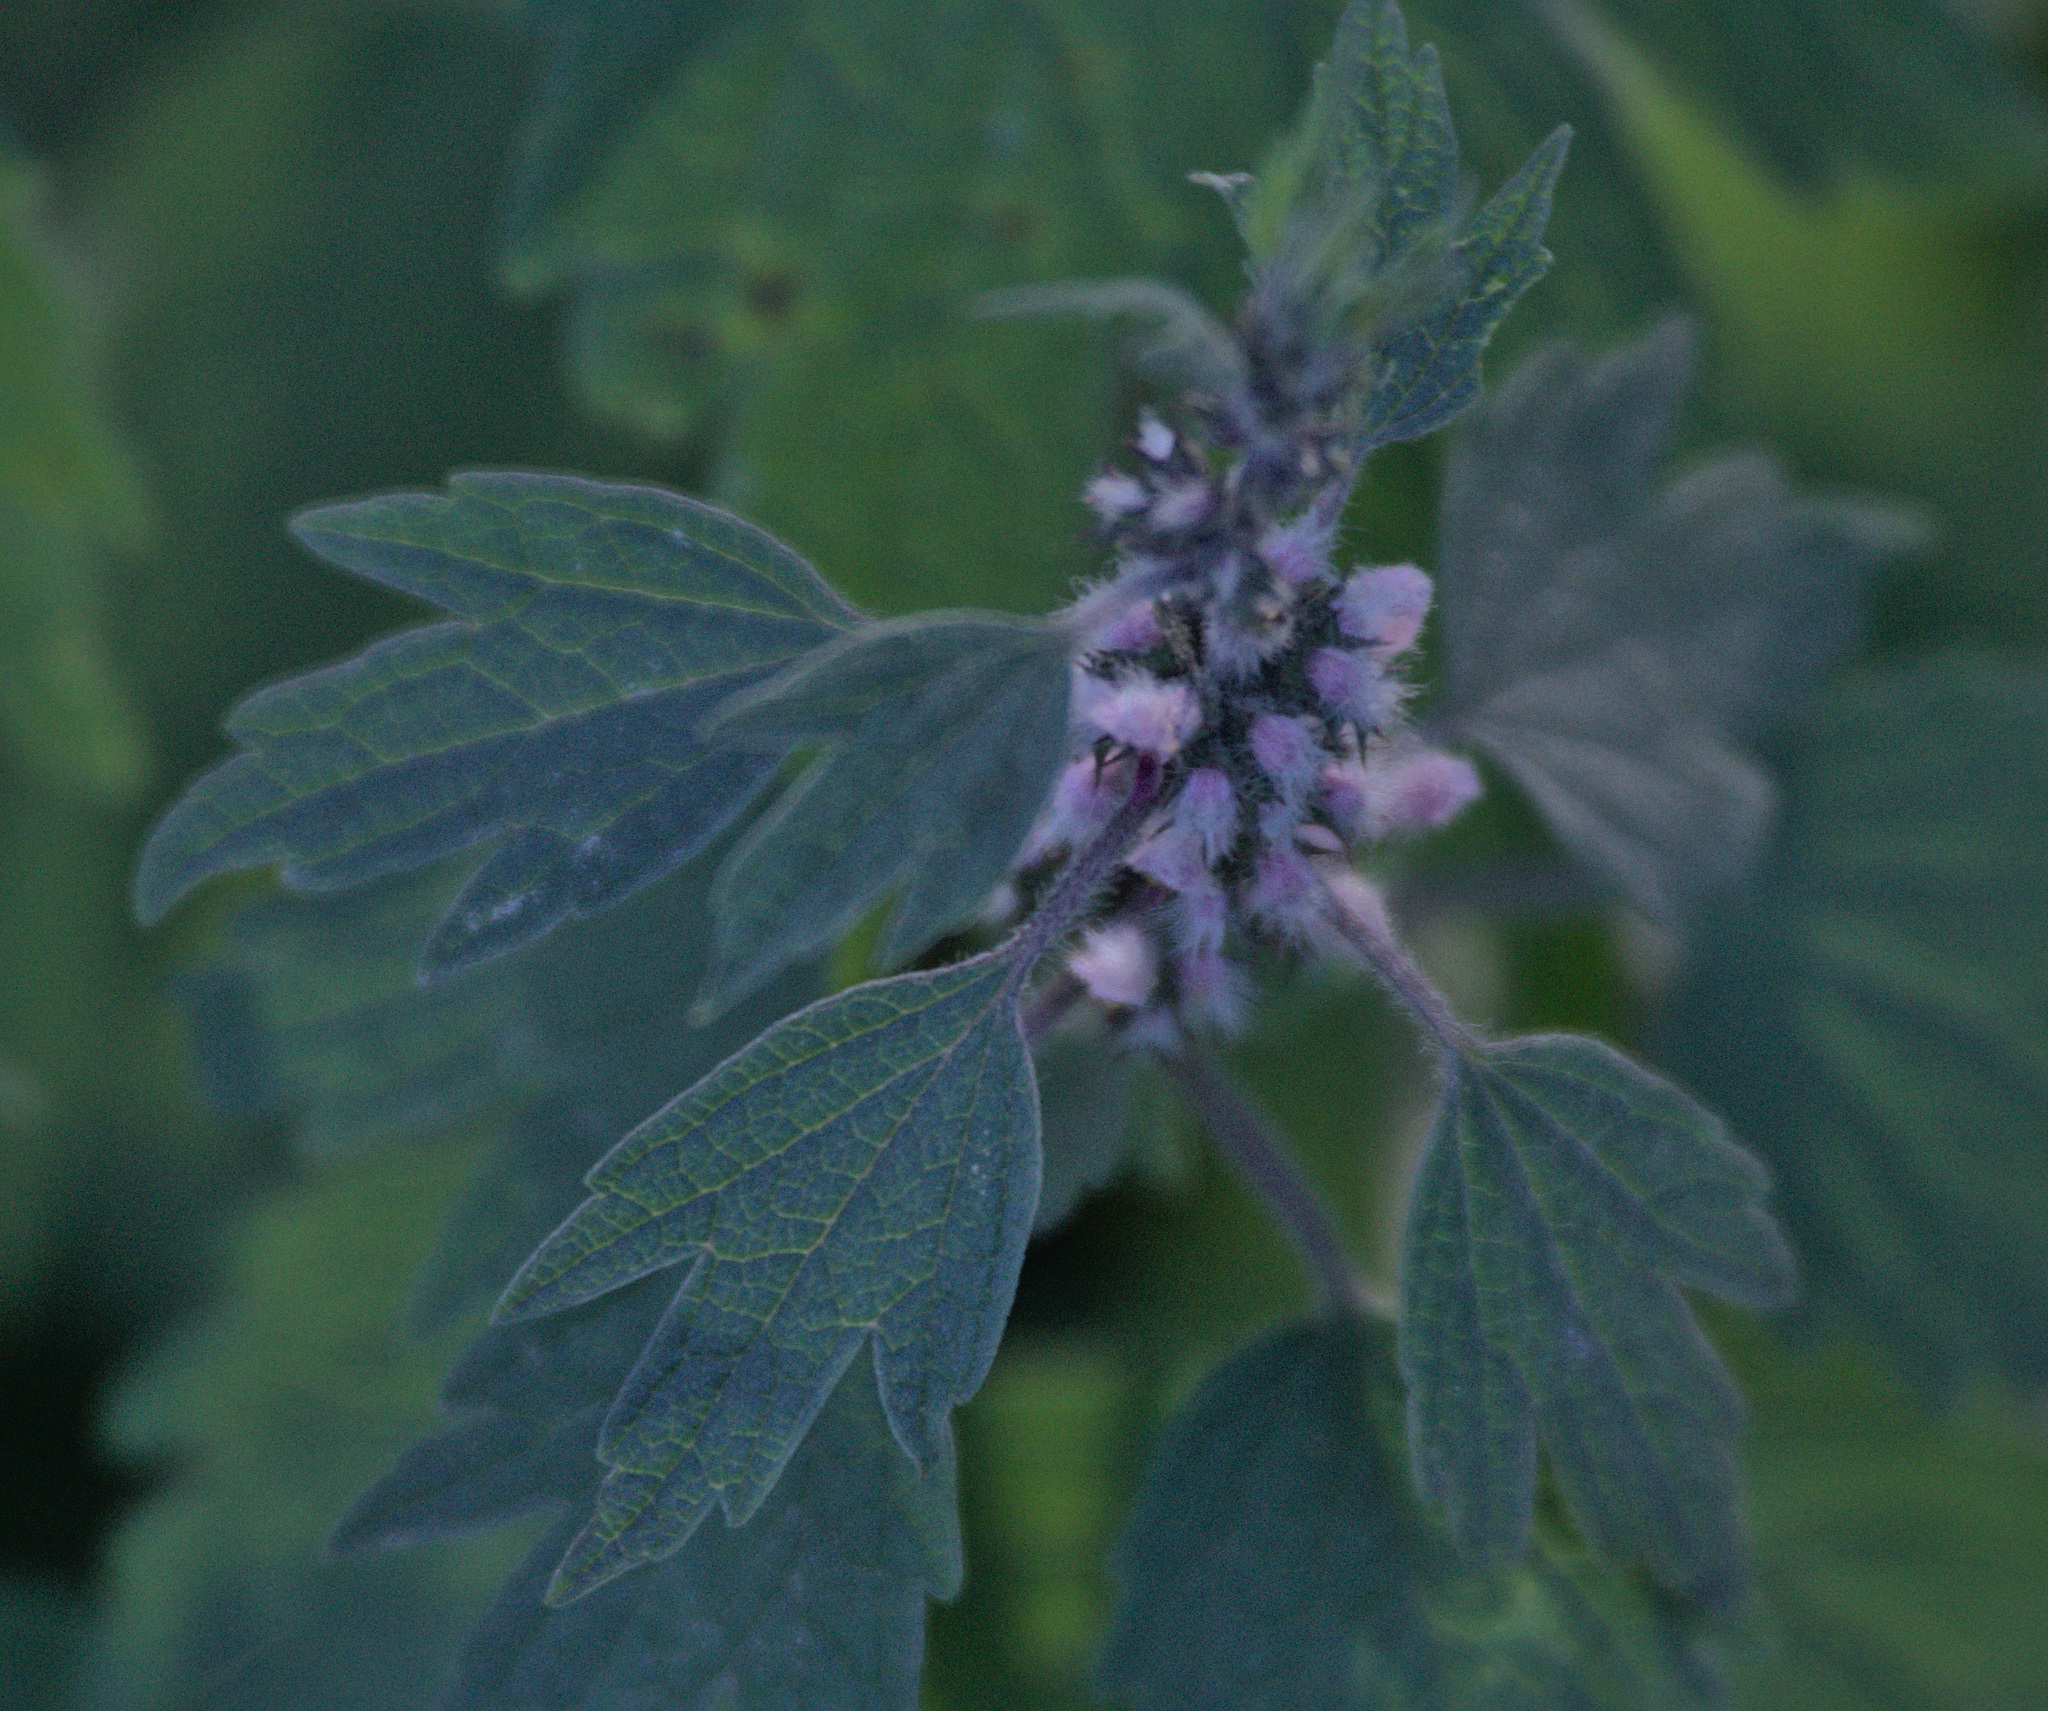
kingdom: Plantae
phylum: Tracheophyta
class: Magnoliopsida
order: Lamiales
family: Lamiaceae
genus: Leonurus
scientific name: Leonurus quinquelobatus
